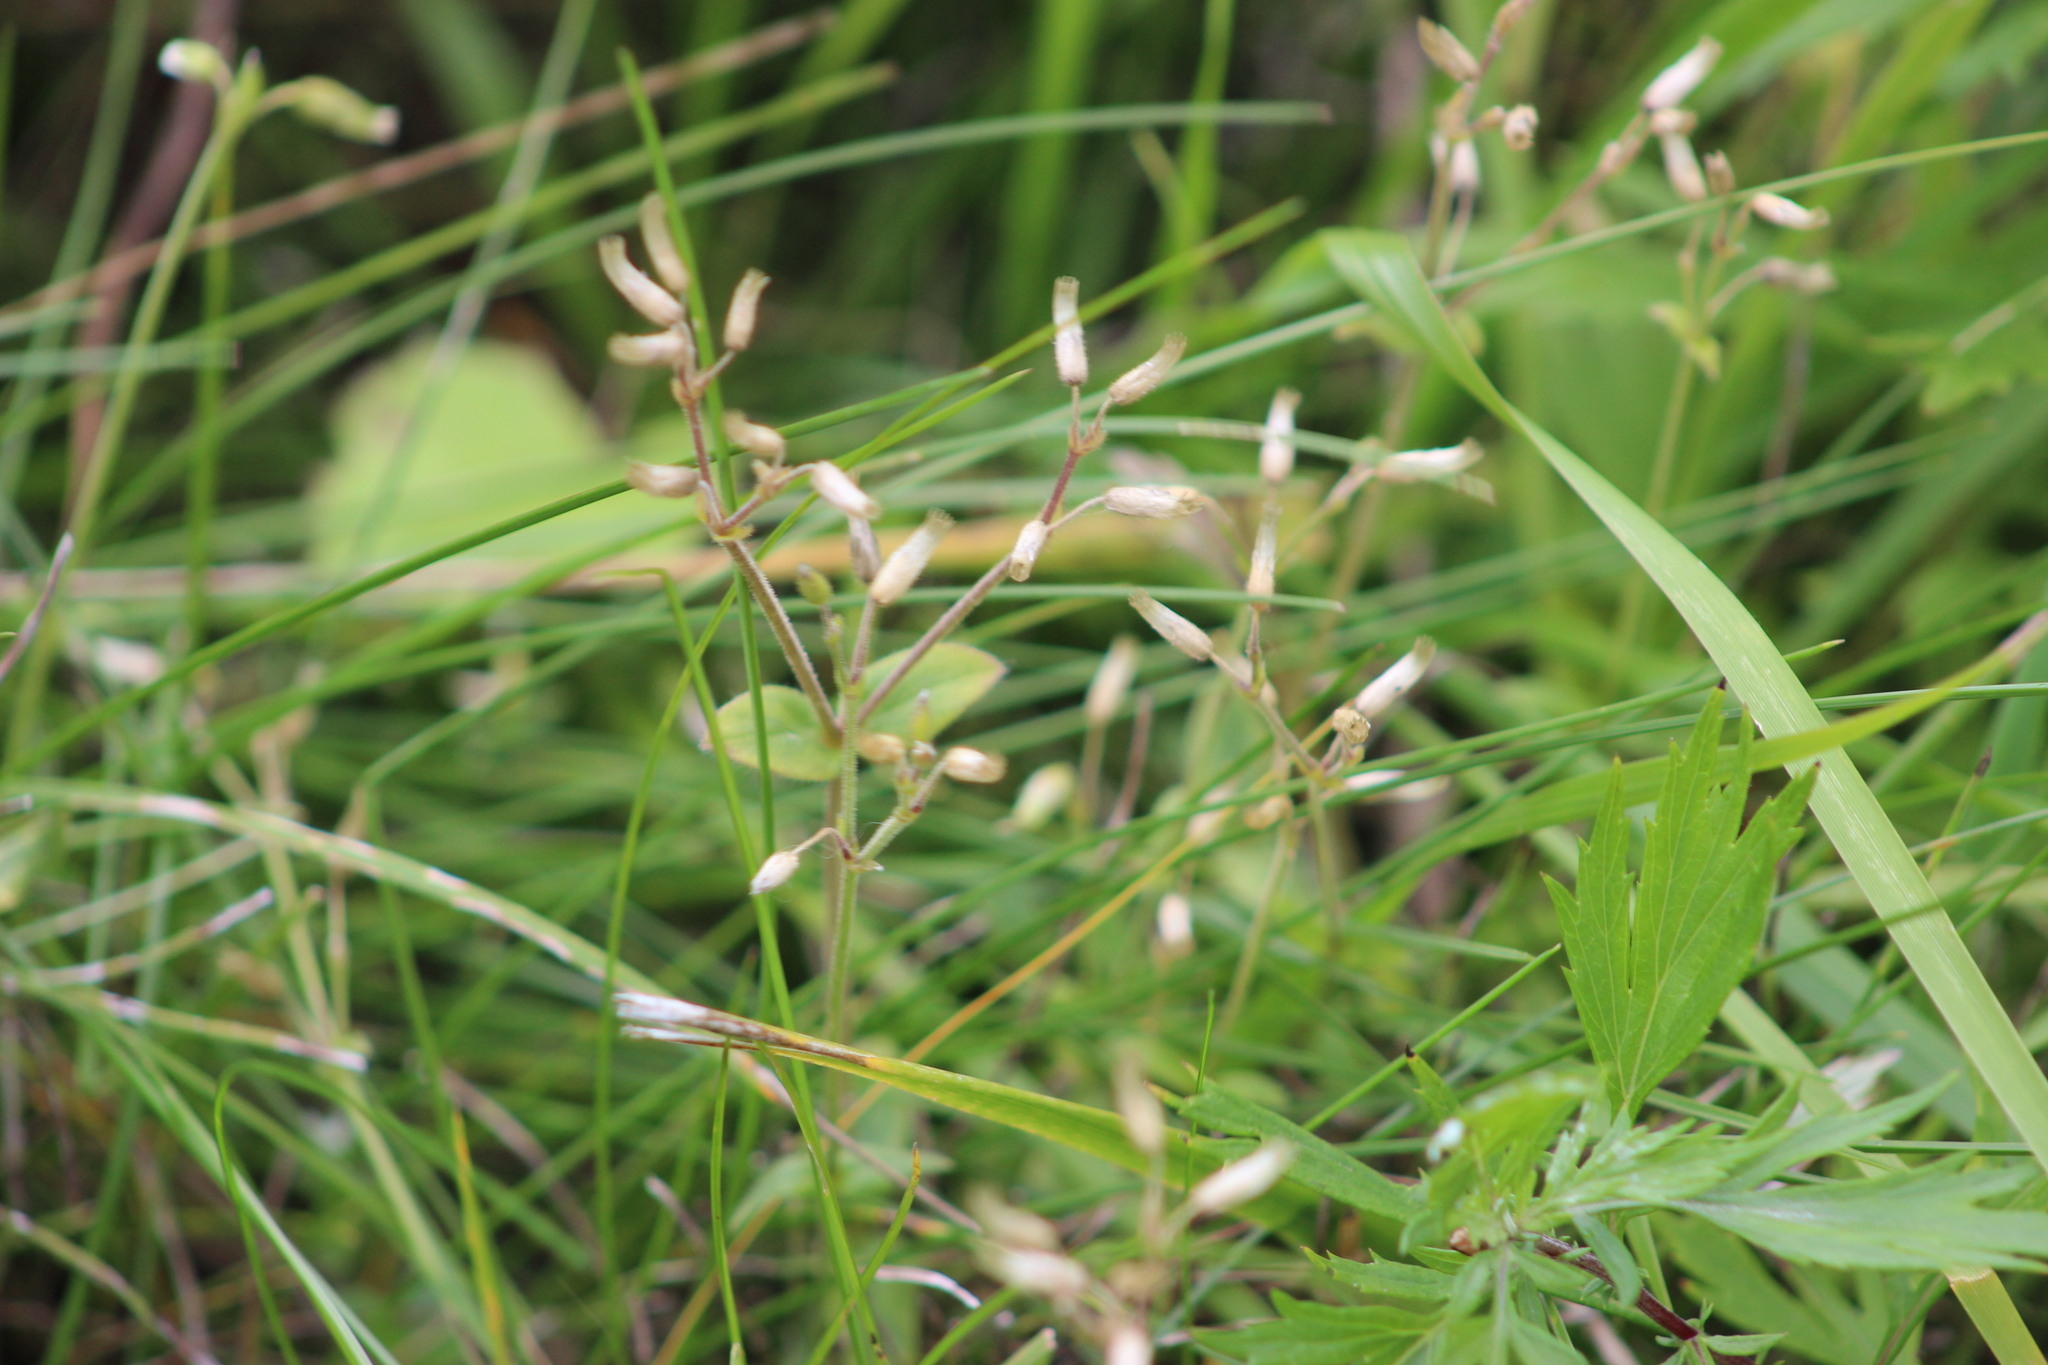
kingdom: Plantae
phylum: Tracheophyta
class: Magnoliopsida
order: Caryophyllales
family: Caryophyllaceae
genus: Cerastium
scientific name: Cerastium holosteoides
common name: Big chickweed
